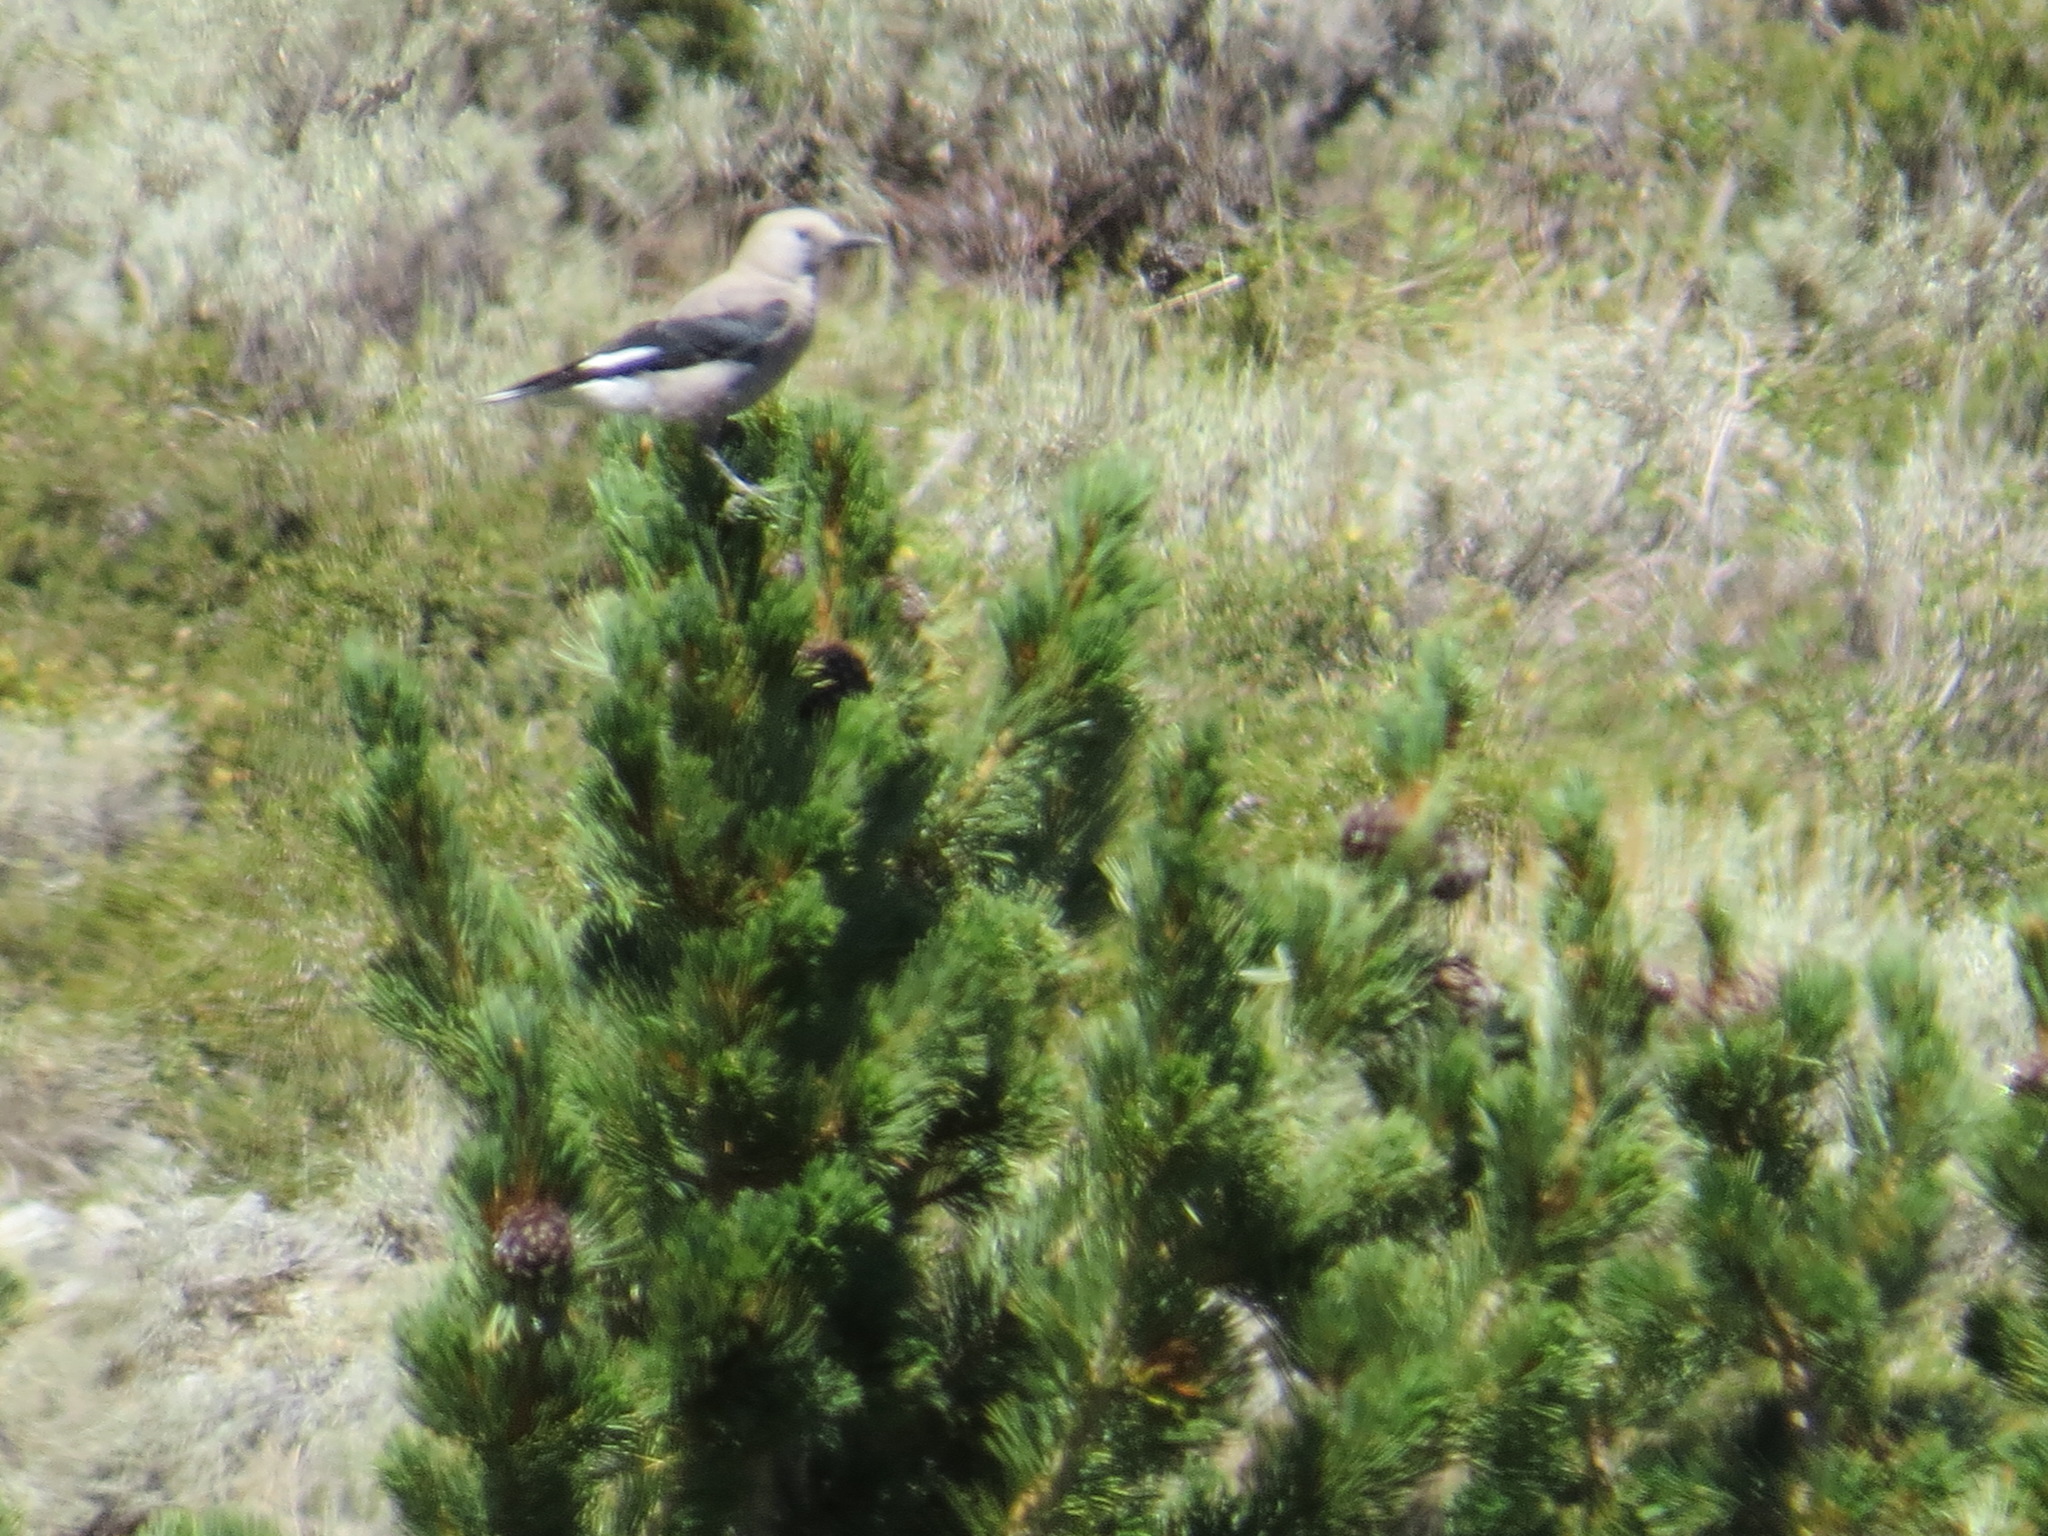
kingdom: Animalia
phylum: Chordata
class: Aves
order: Passeriformes
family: Corvidae
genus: Nucifraga
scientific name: Nucifraga columbiana
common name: Clark's nutcracker
